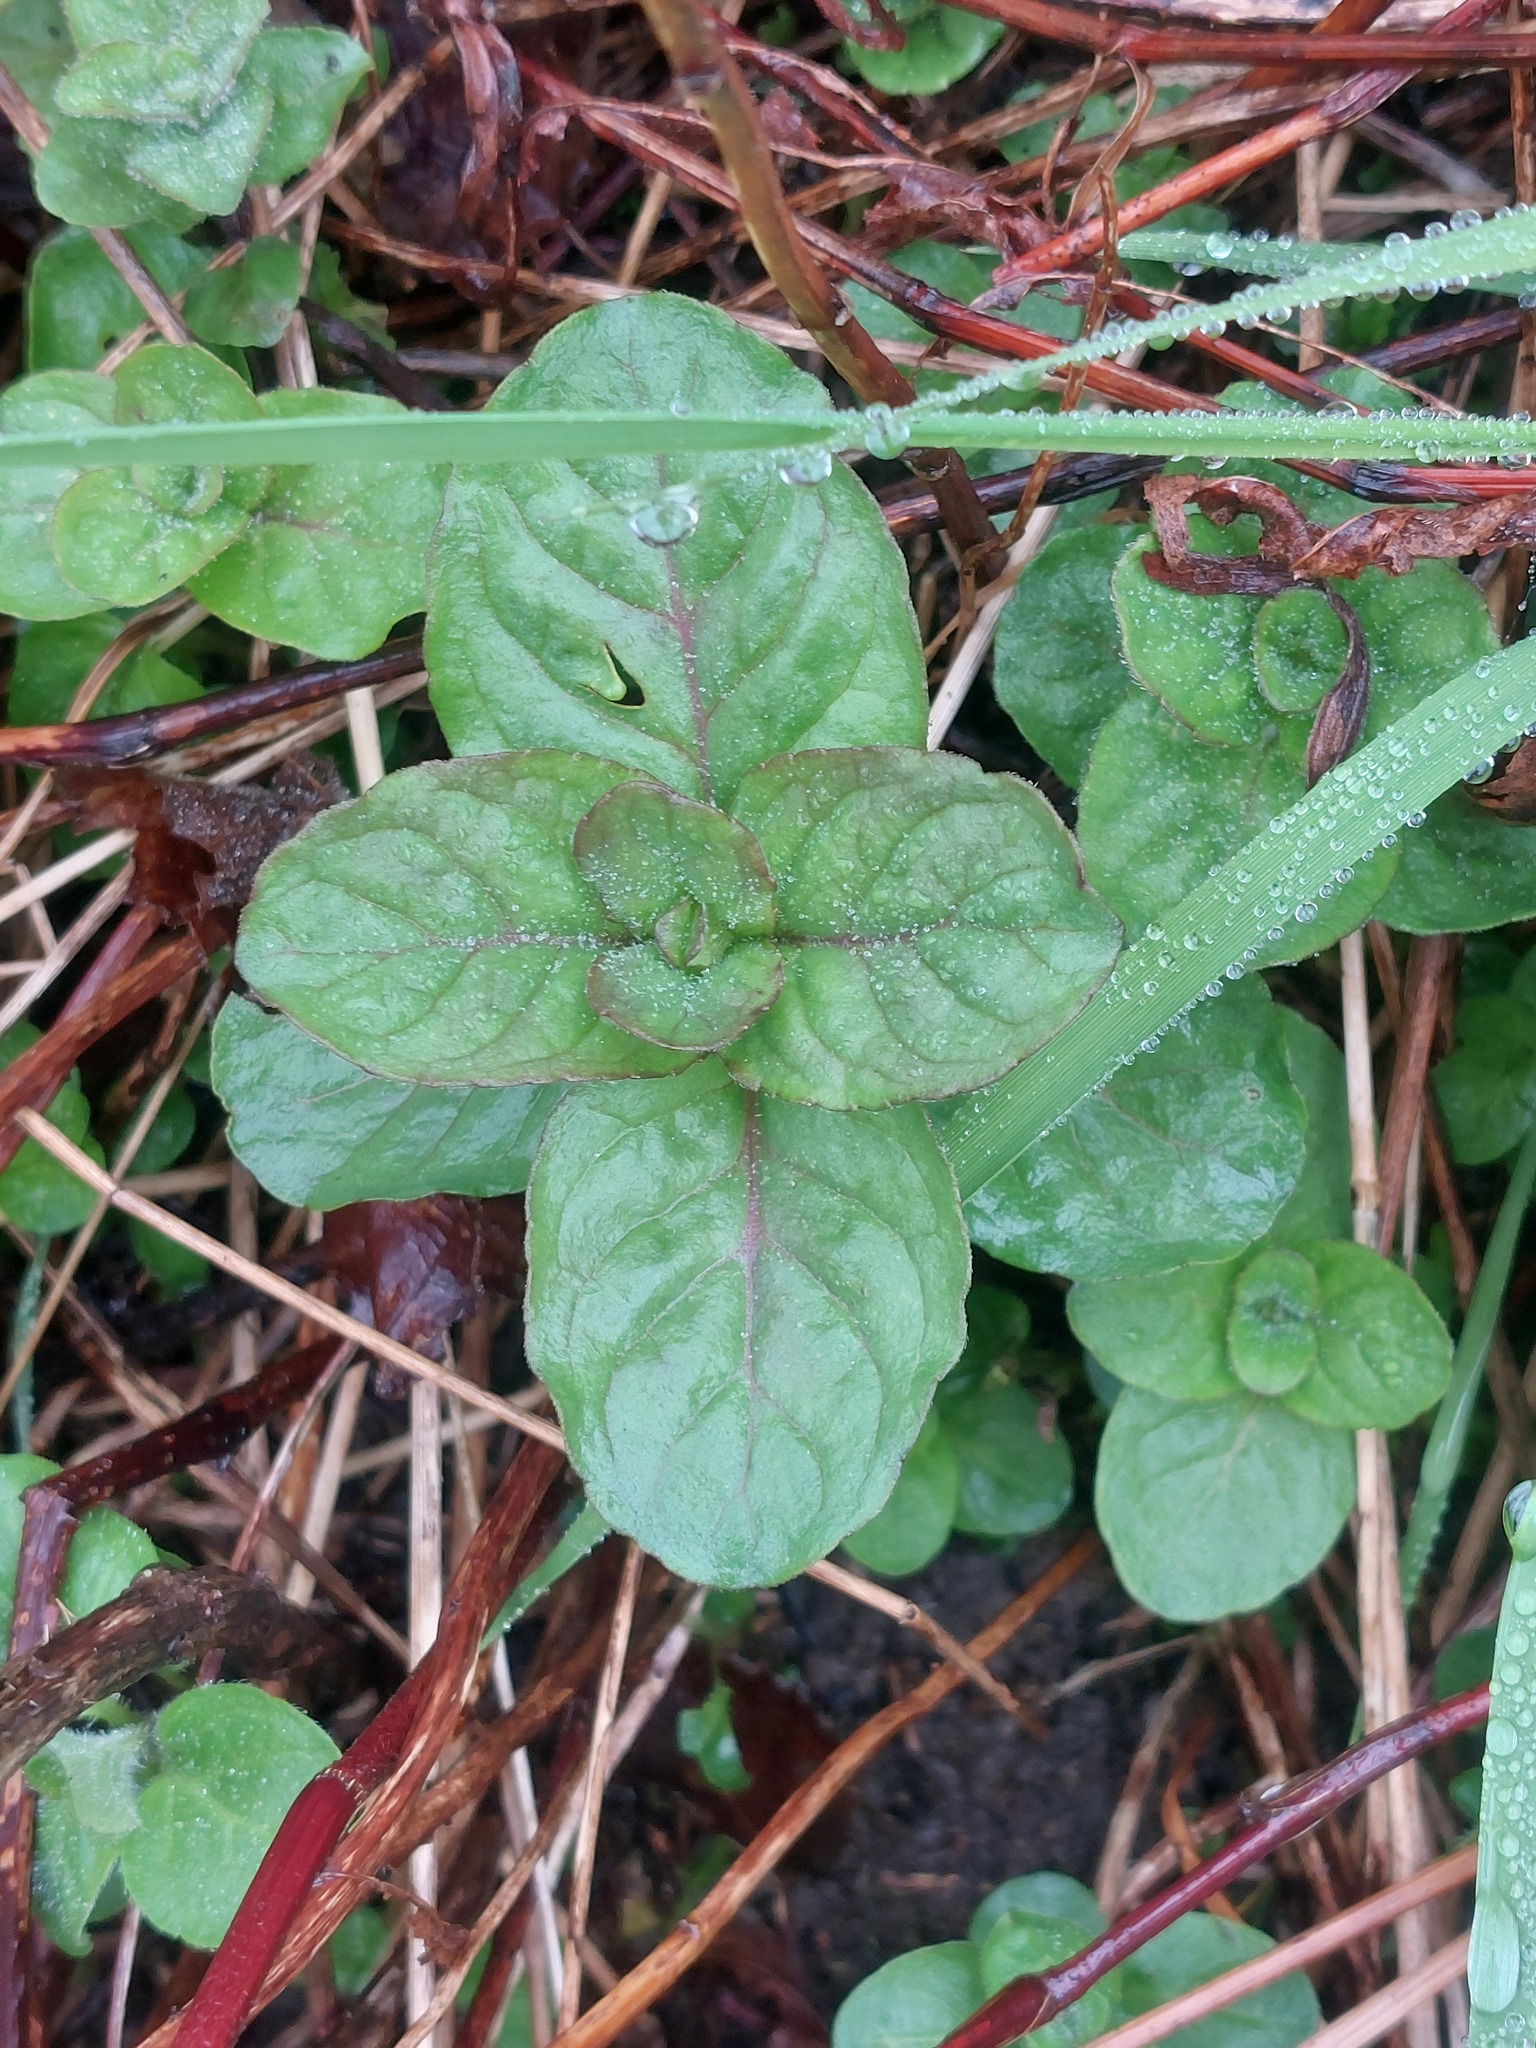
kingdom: Plantae
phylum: Tracheophyta
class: Magnoliopsida
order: Lamiales
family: Lamiaceae
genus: Mentha
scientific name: Mentha aquatica
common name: Water mint
